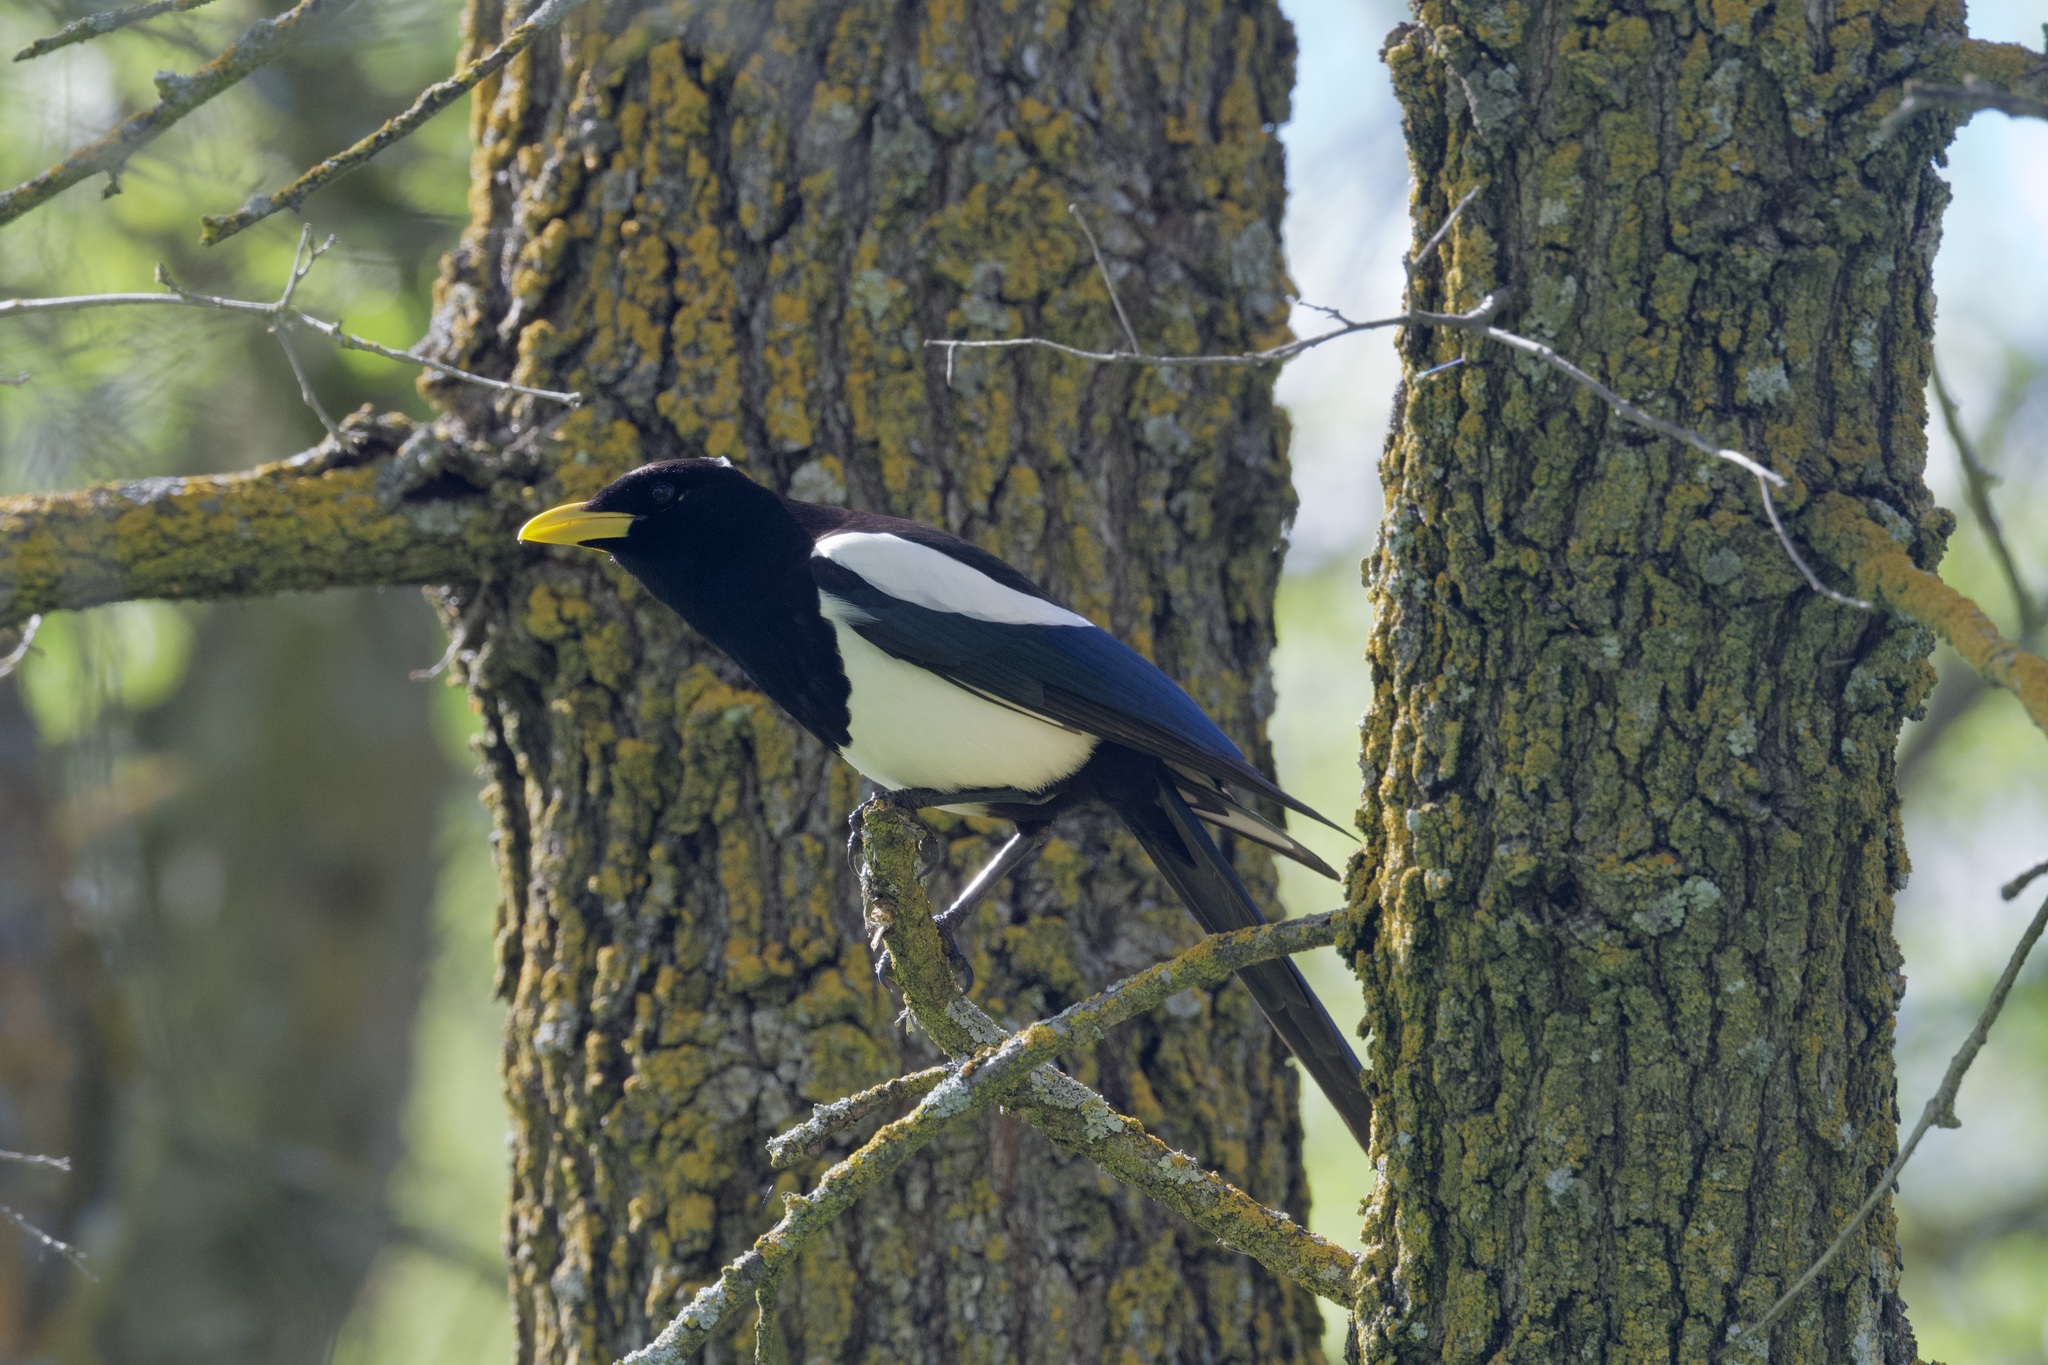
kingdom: Animalia
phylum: Chordata
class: Aves
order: Passeriformes
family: Corvidae
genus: Pica
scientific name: Pica nuttalli
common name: Yellow-billed magpie
